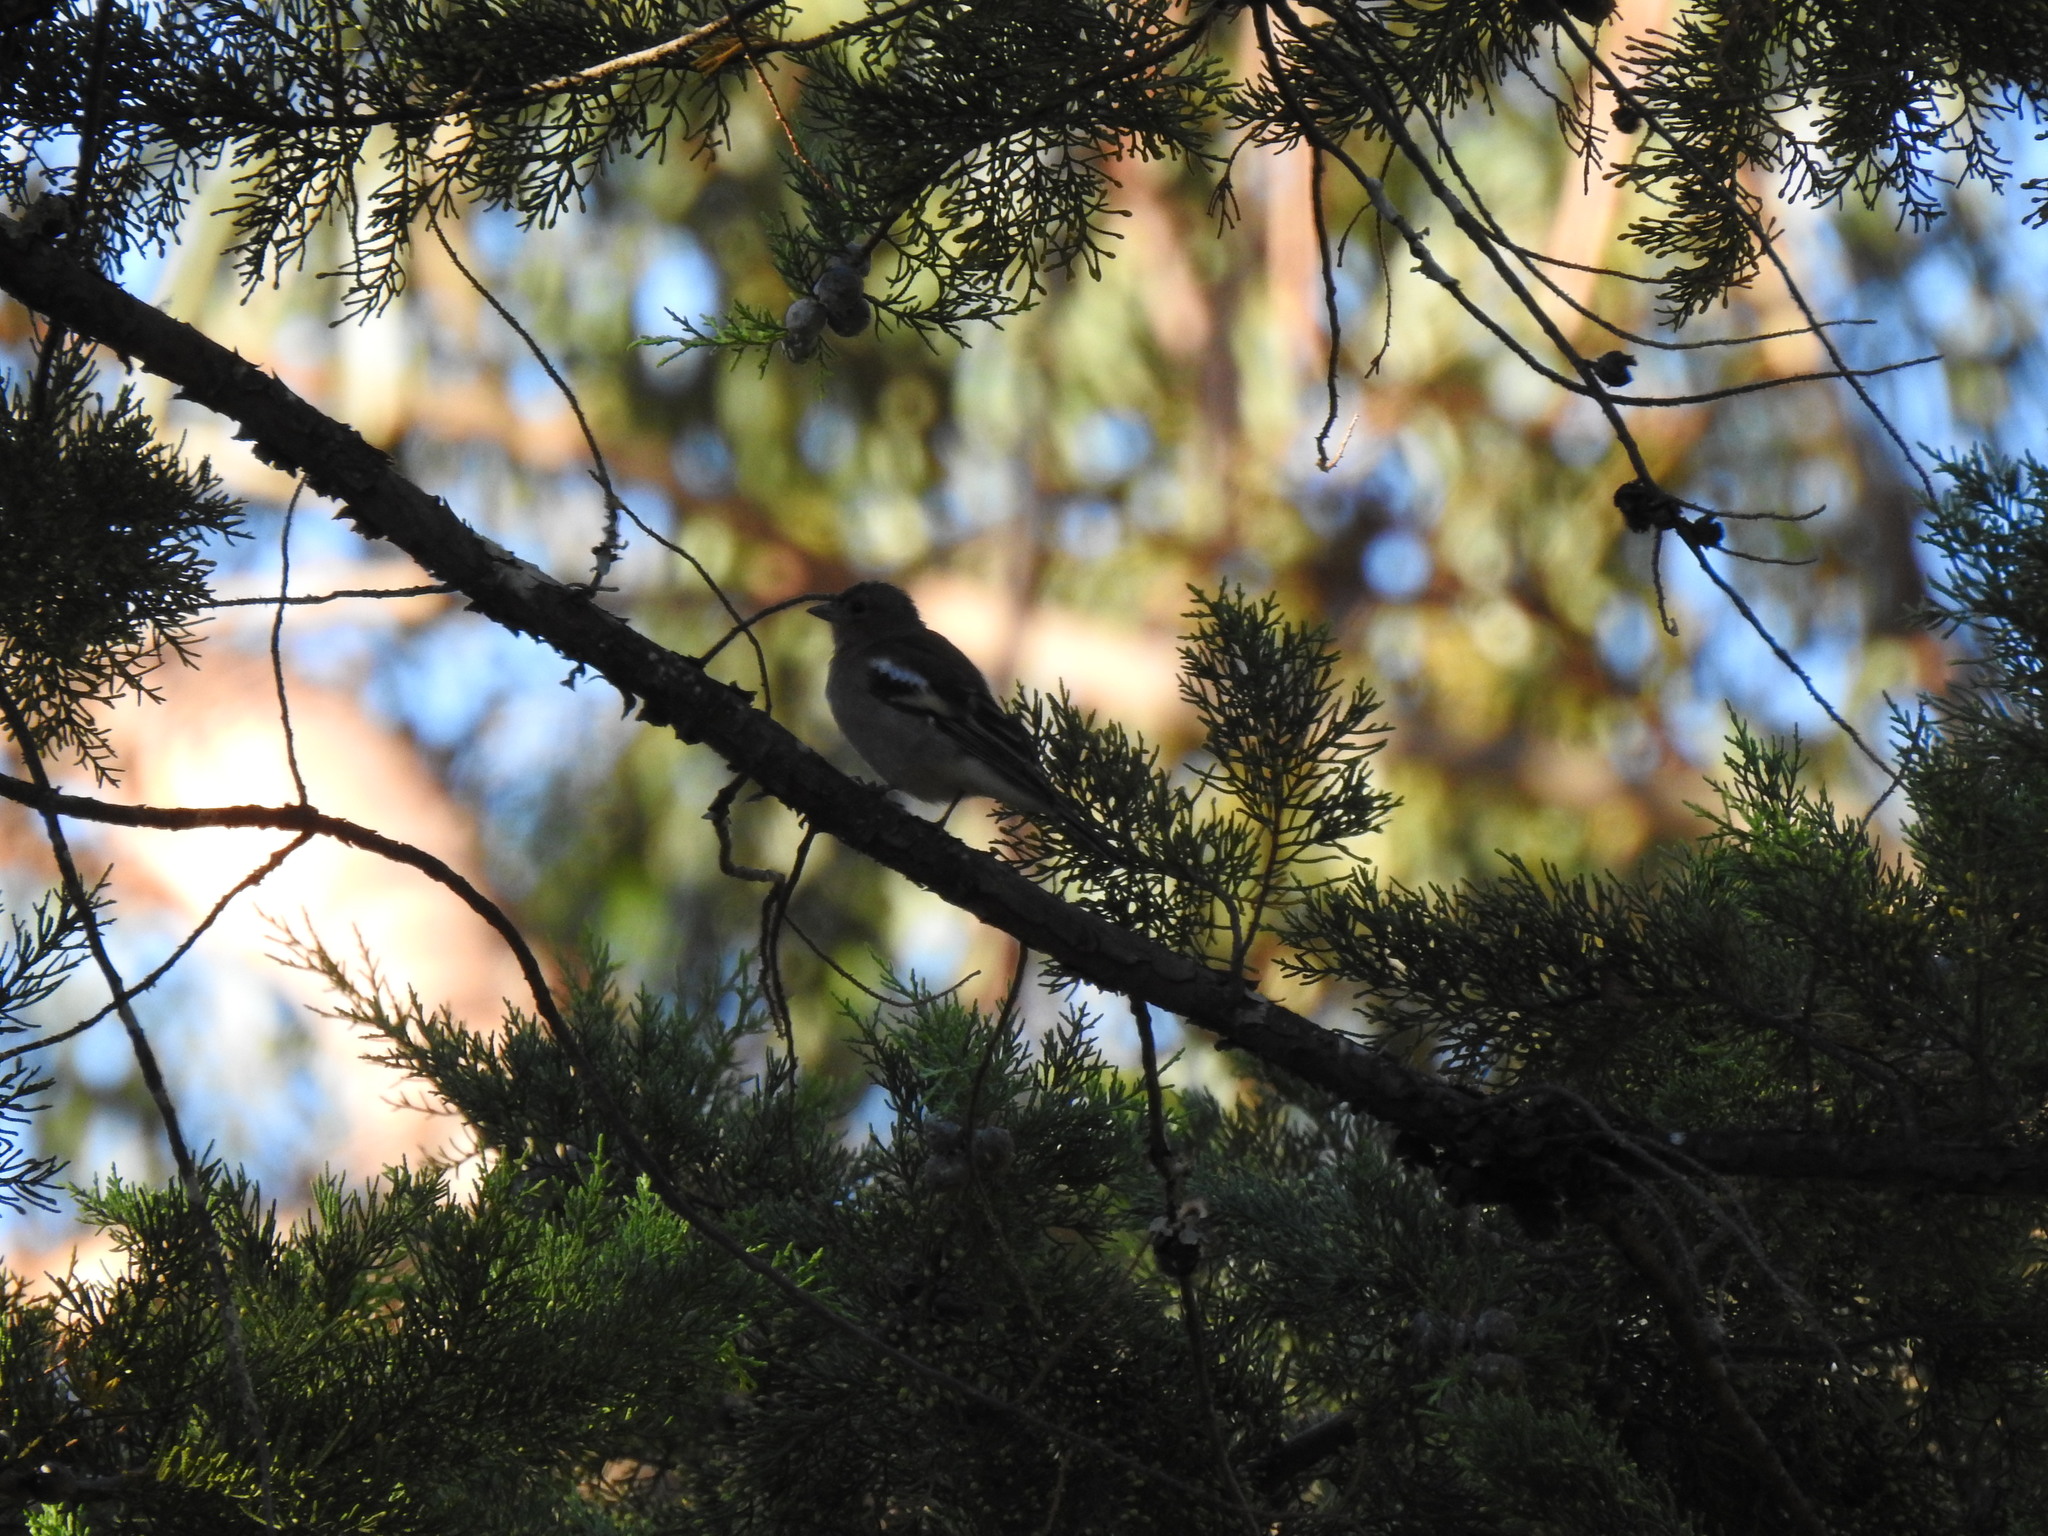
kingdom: Animalia
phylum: Chordata
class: Aves
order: Passeriformes
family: Fringillidae
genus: Fringilla
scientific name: Fringilla coelebs
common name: Common chaffinch
